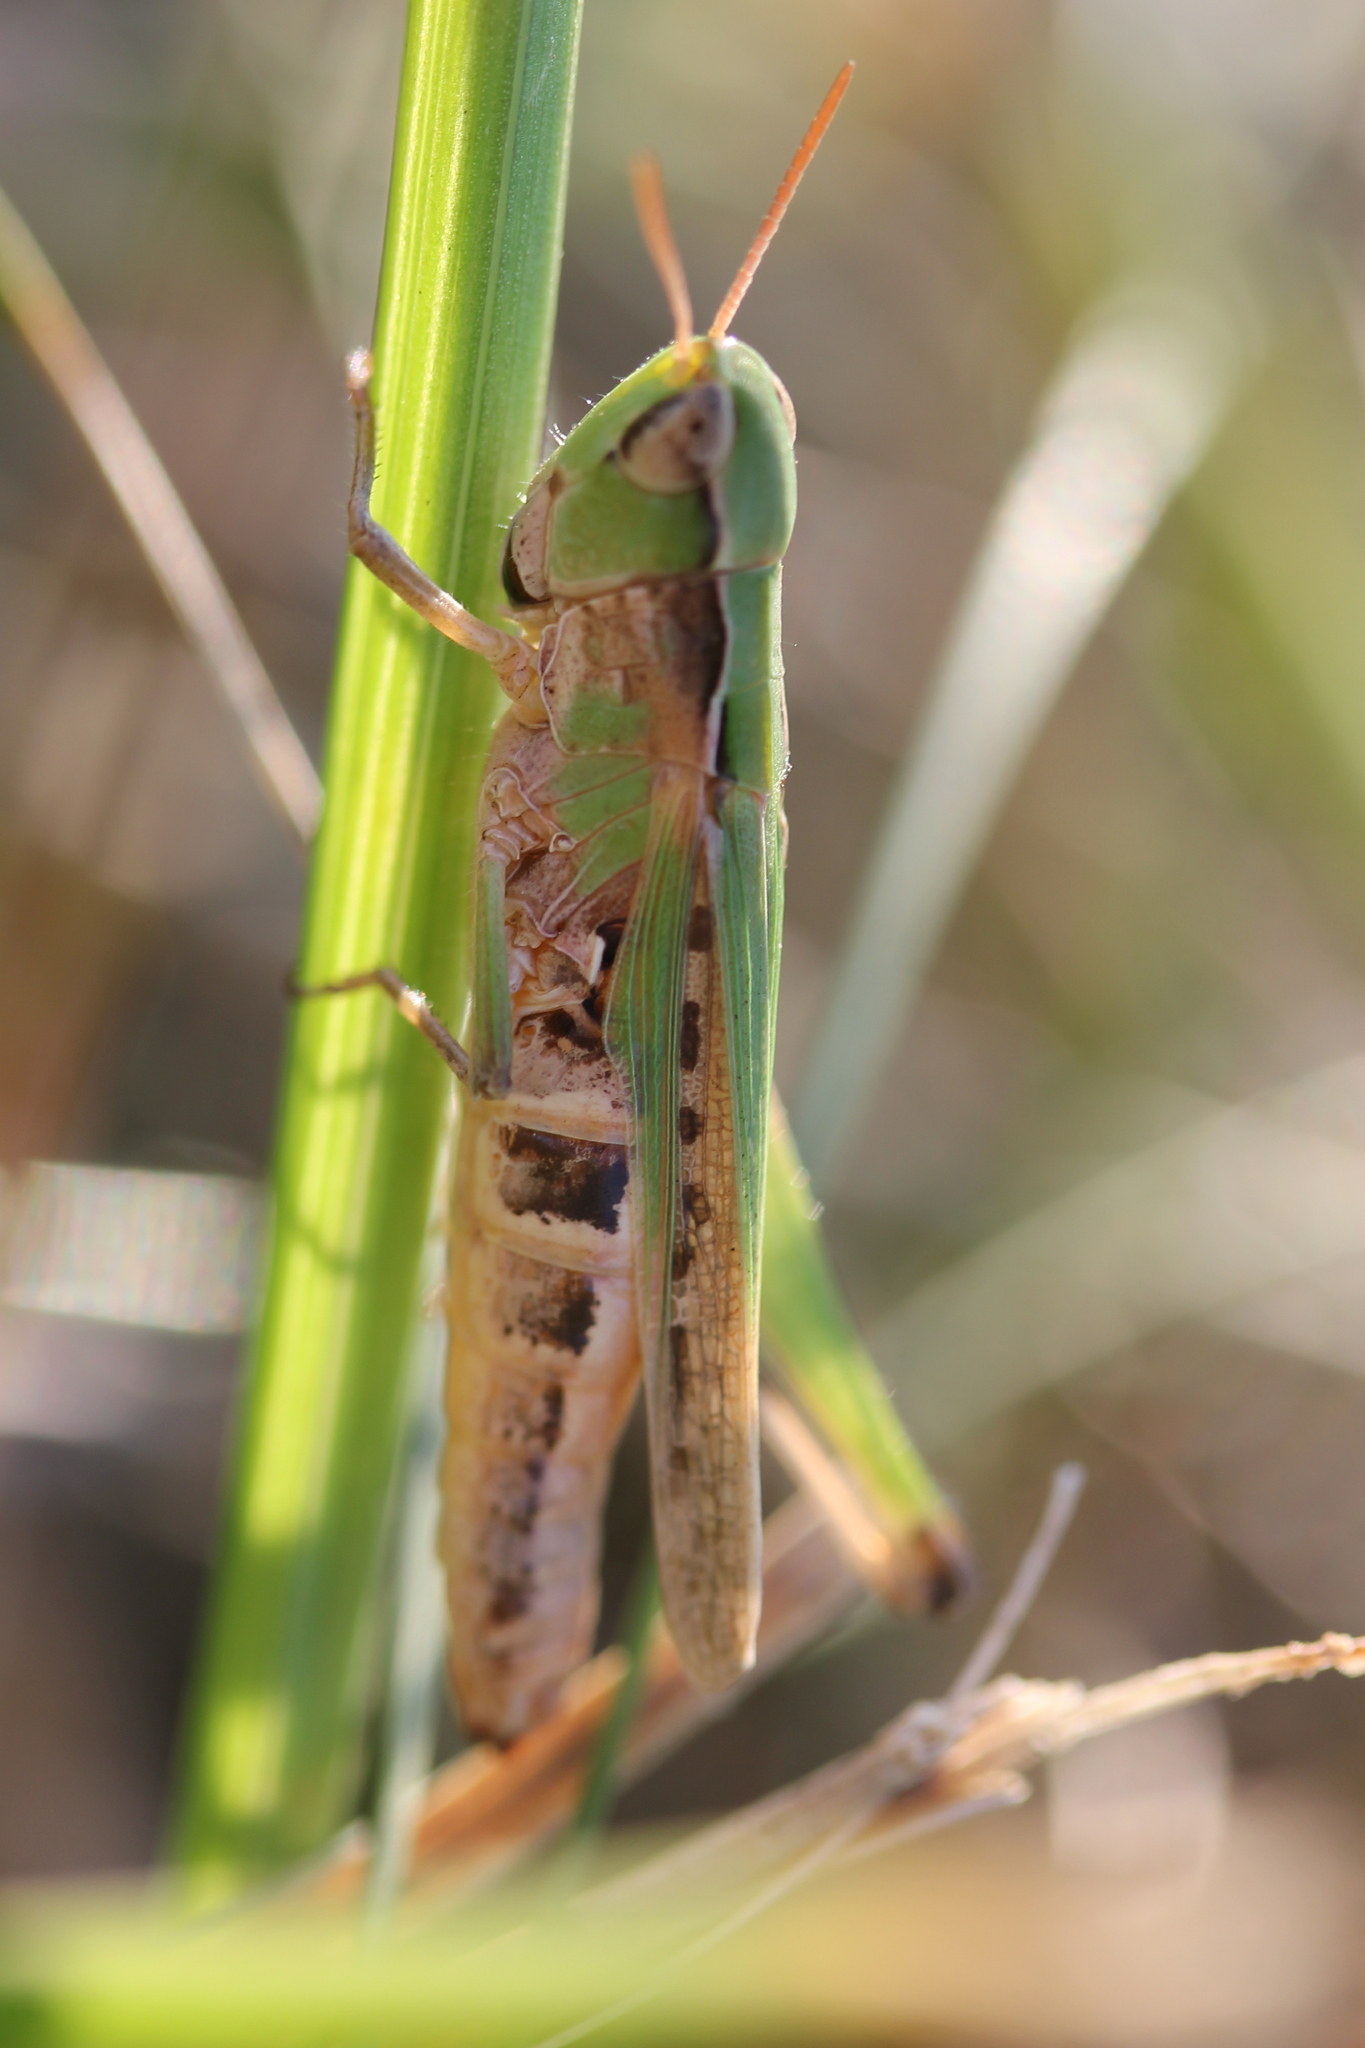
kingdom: Animalia
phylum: Arthropoda
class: Insecta
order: Orthoptera
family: Acrididae
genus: Orphulella
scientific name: Orphulella speciosa
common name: Pasture grasshopper
